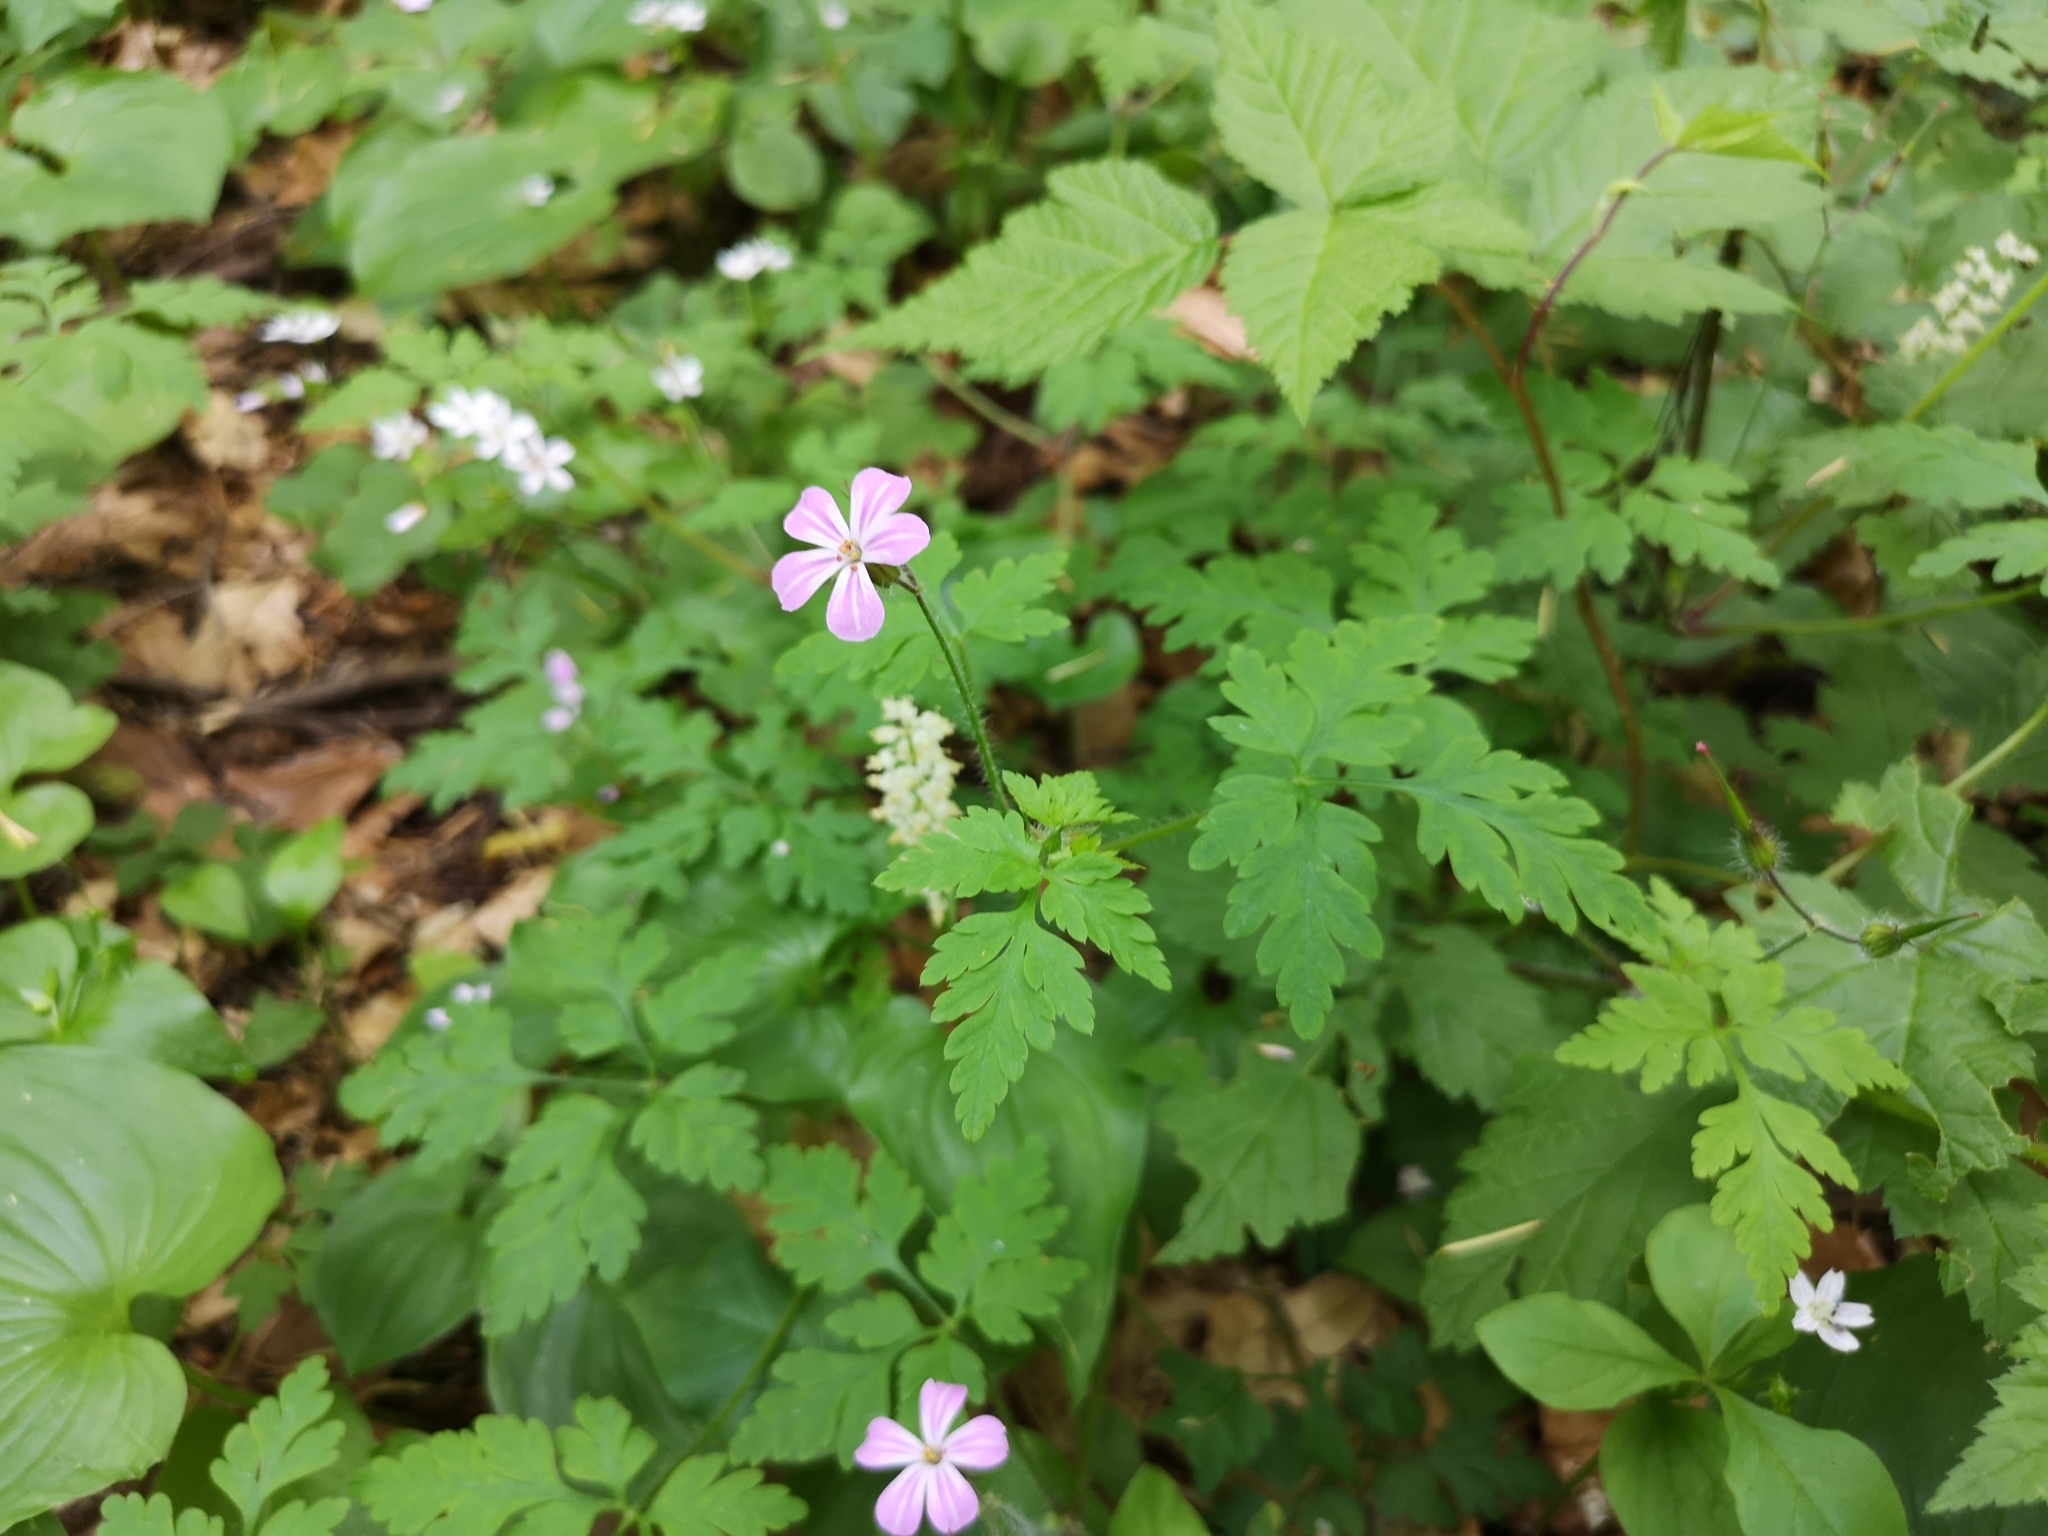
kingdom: Plantae
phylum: Tracheophyta
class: Magnoliopsida
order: Geraniales
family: Geraniaceae
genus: Geranium
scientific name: Geranium robertianum
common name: Herb-robert
